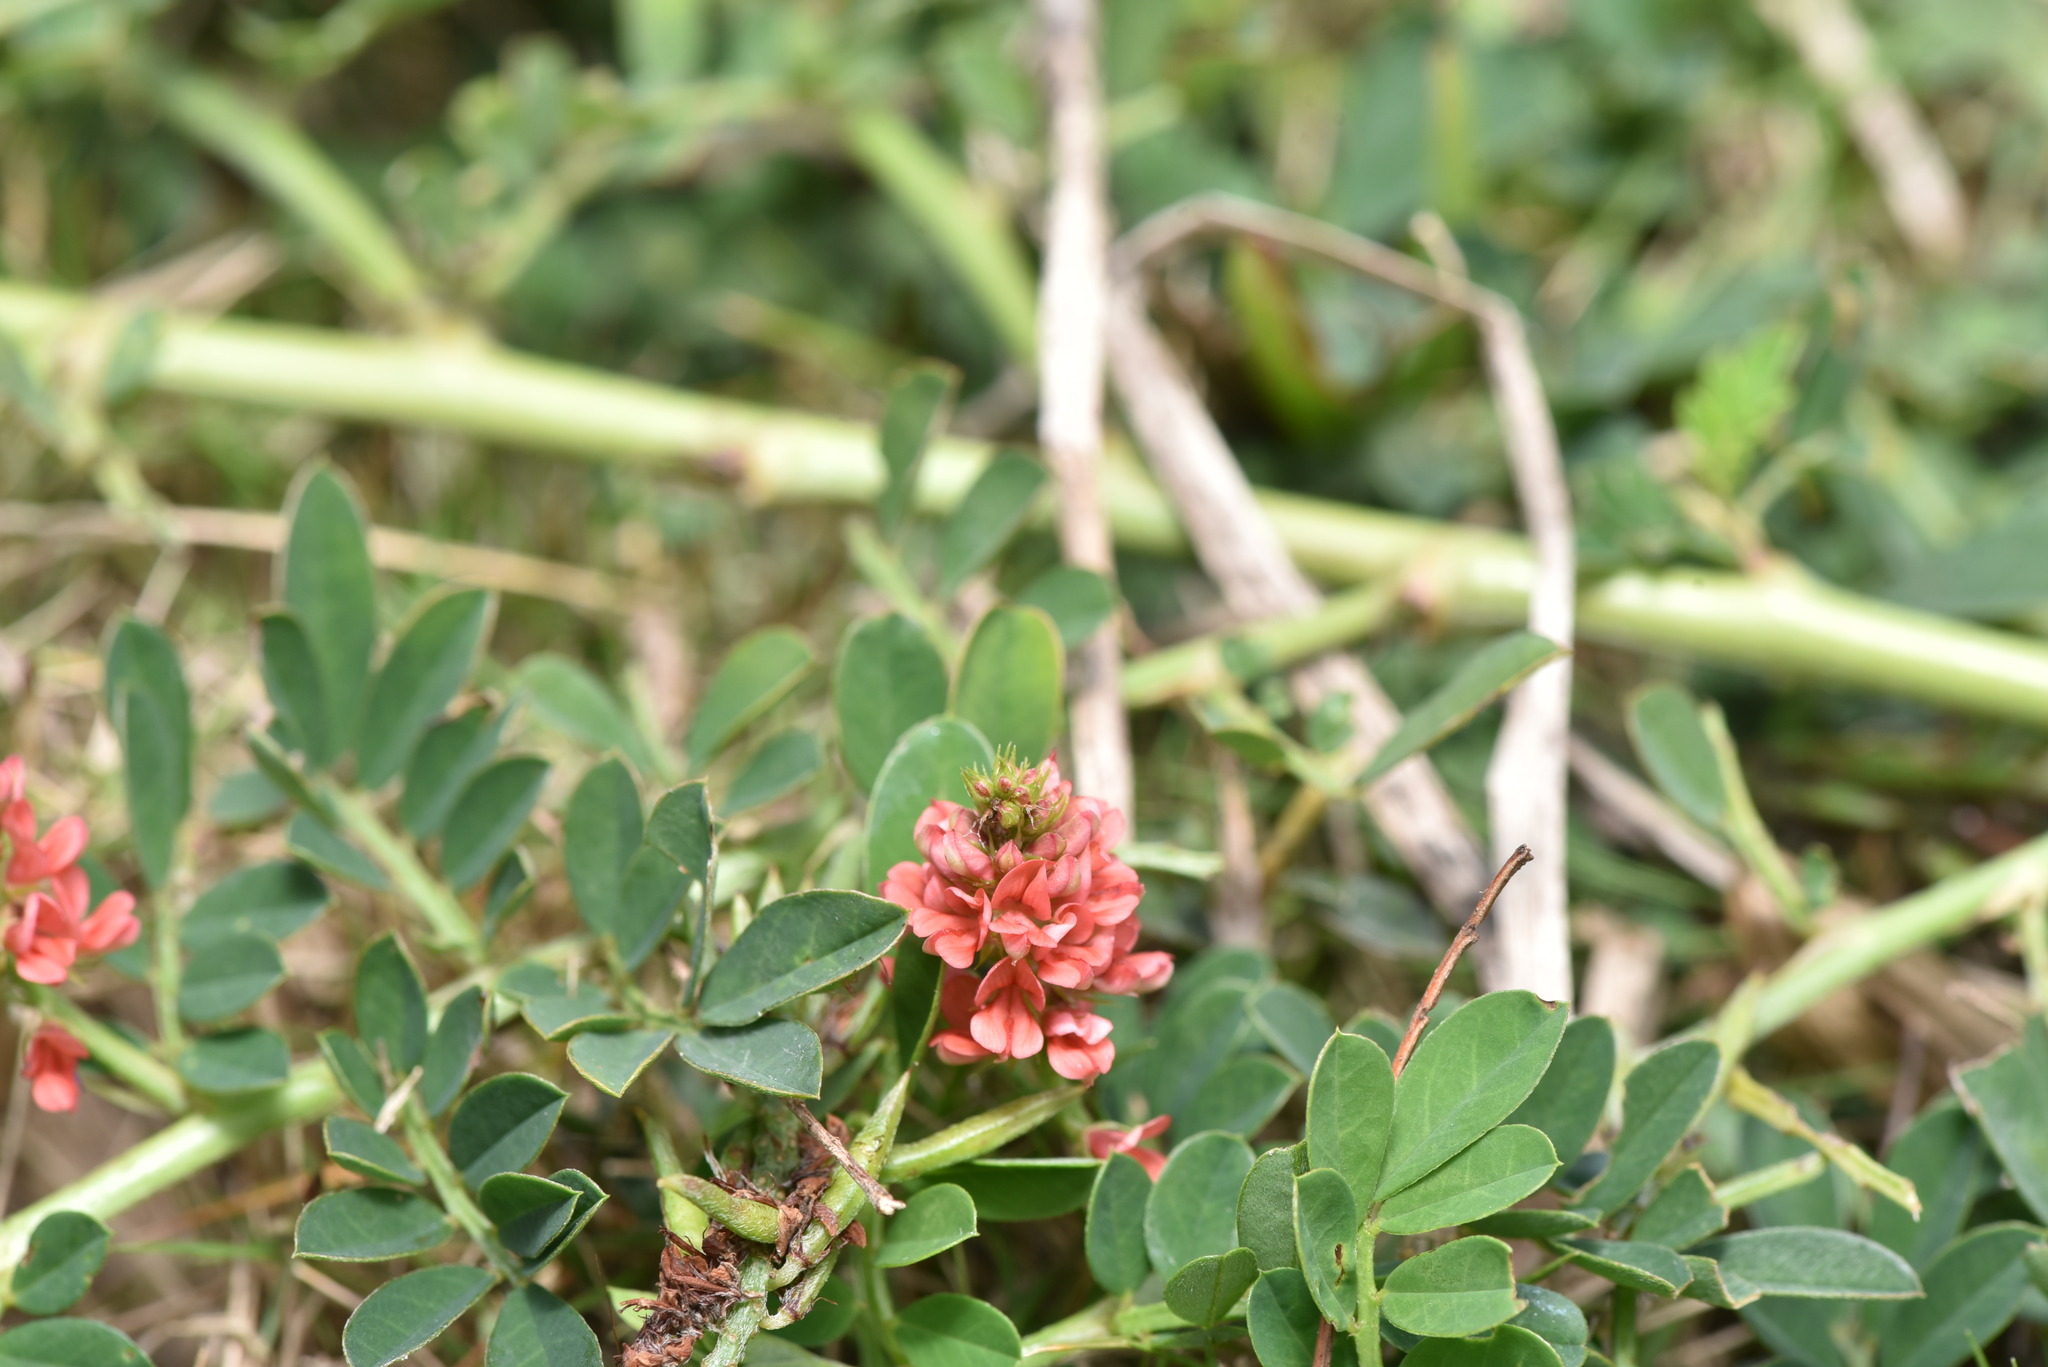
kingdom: Plantae
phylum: Tracheophyta
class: Magnoliopsida
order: Fabales
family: Fabaceae
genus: Indigofera
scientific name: Indigofera spicata
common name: Creeping indigo
